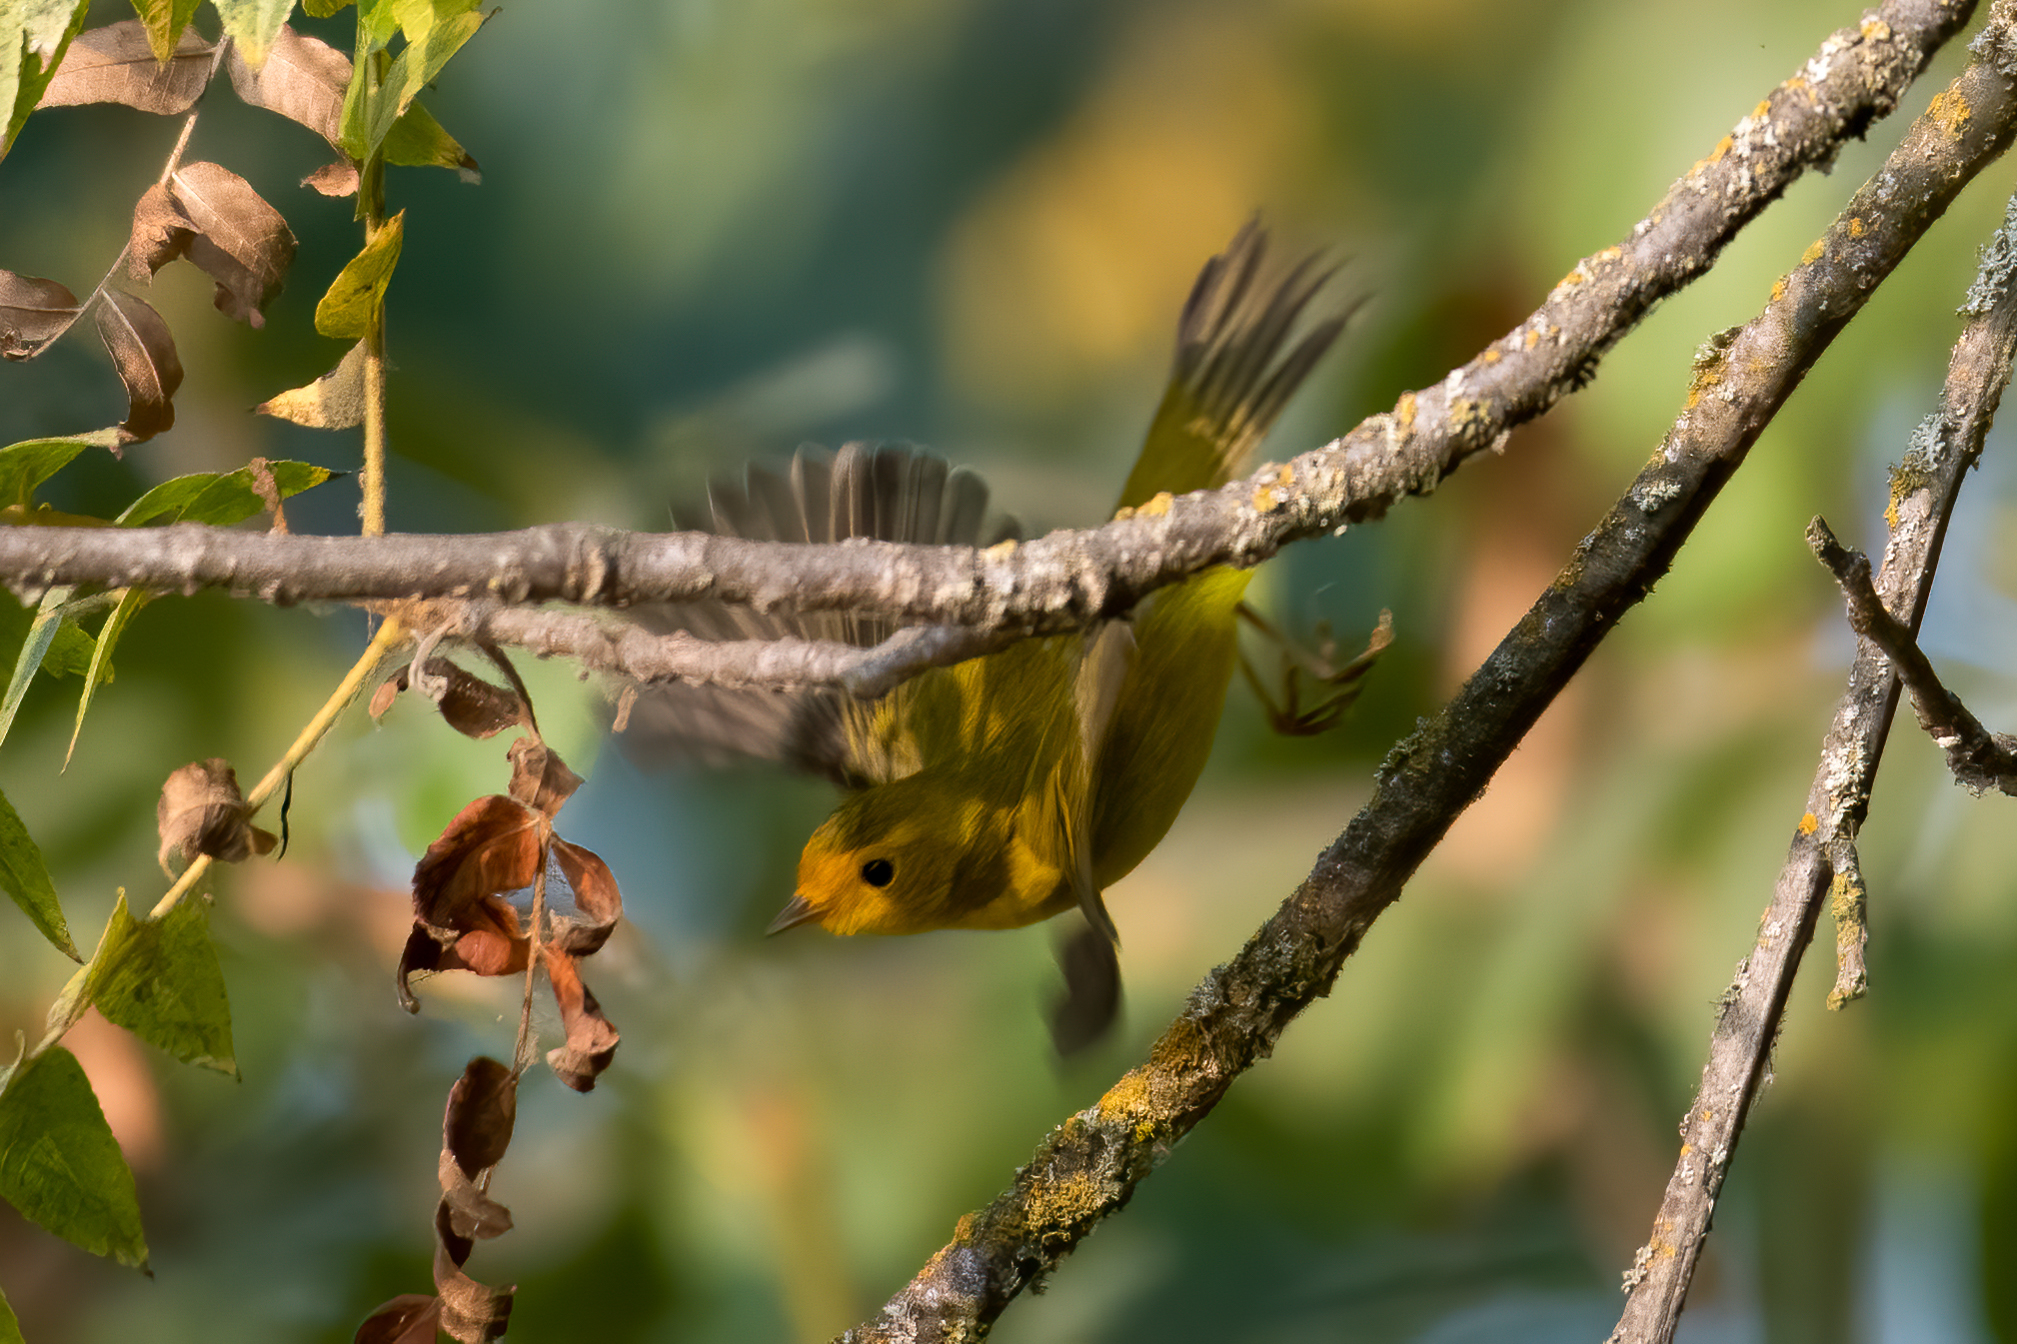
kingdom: Animalia
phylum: Chordata
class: Aves
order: Passeriformes
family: Parulidae
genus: Cardellina
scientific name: Cardellina pusilla
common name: Wilson's warbler
